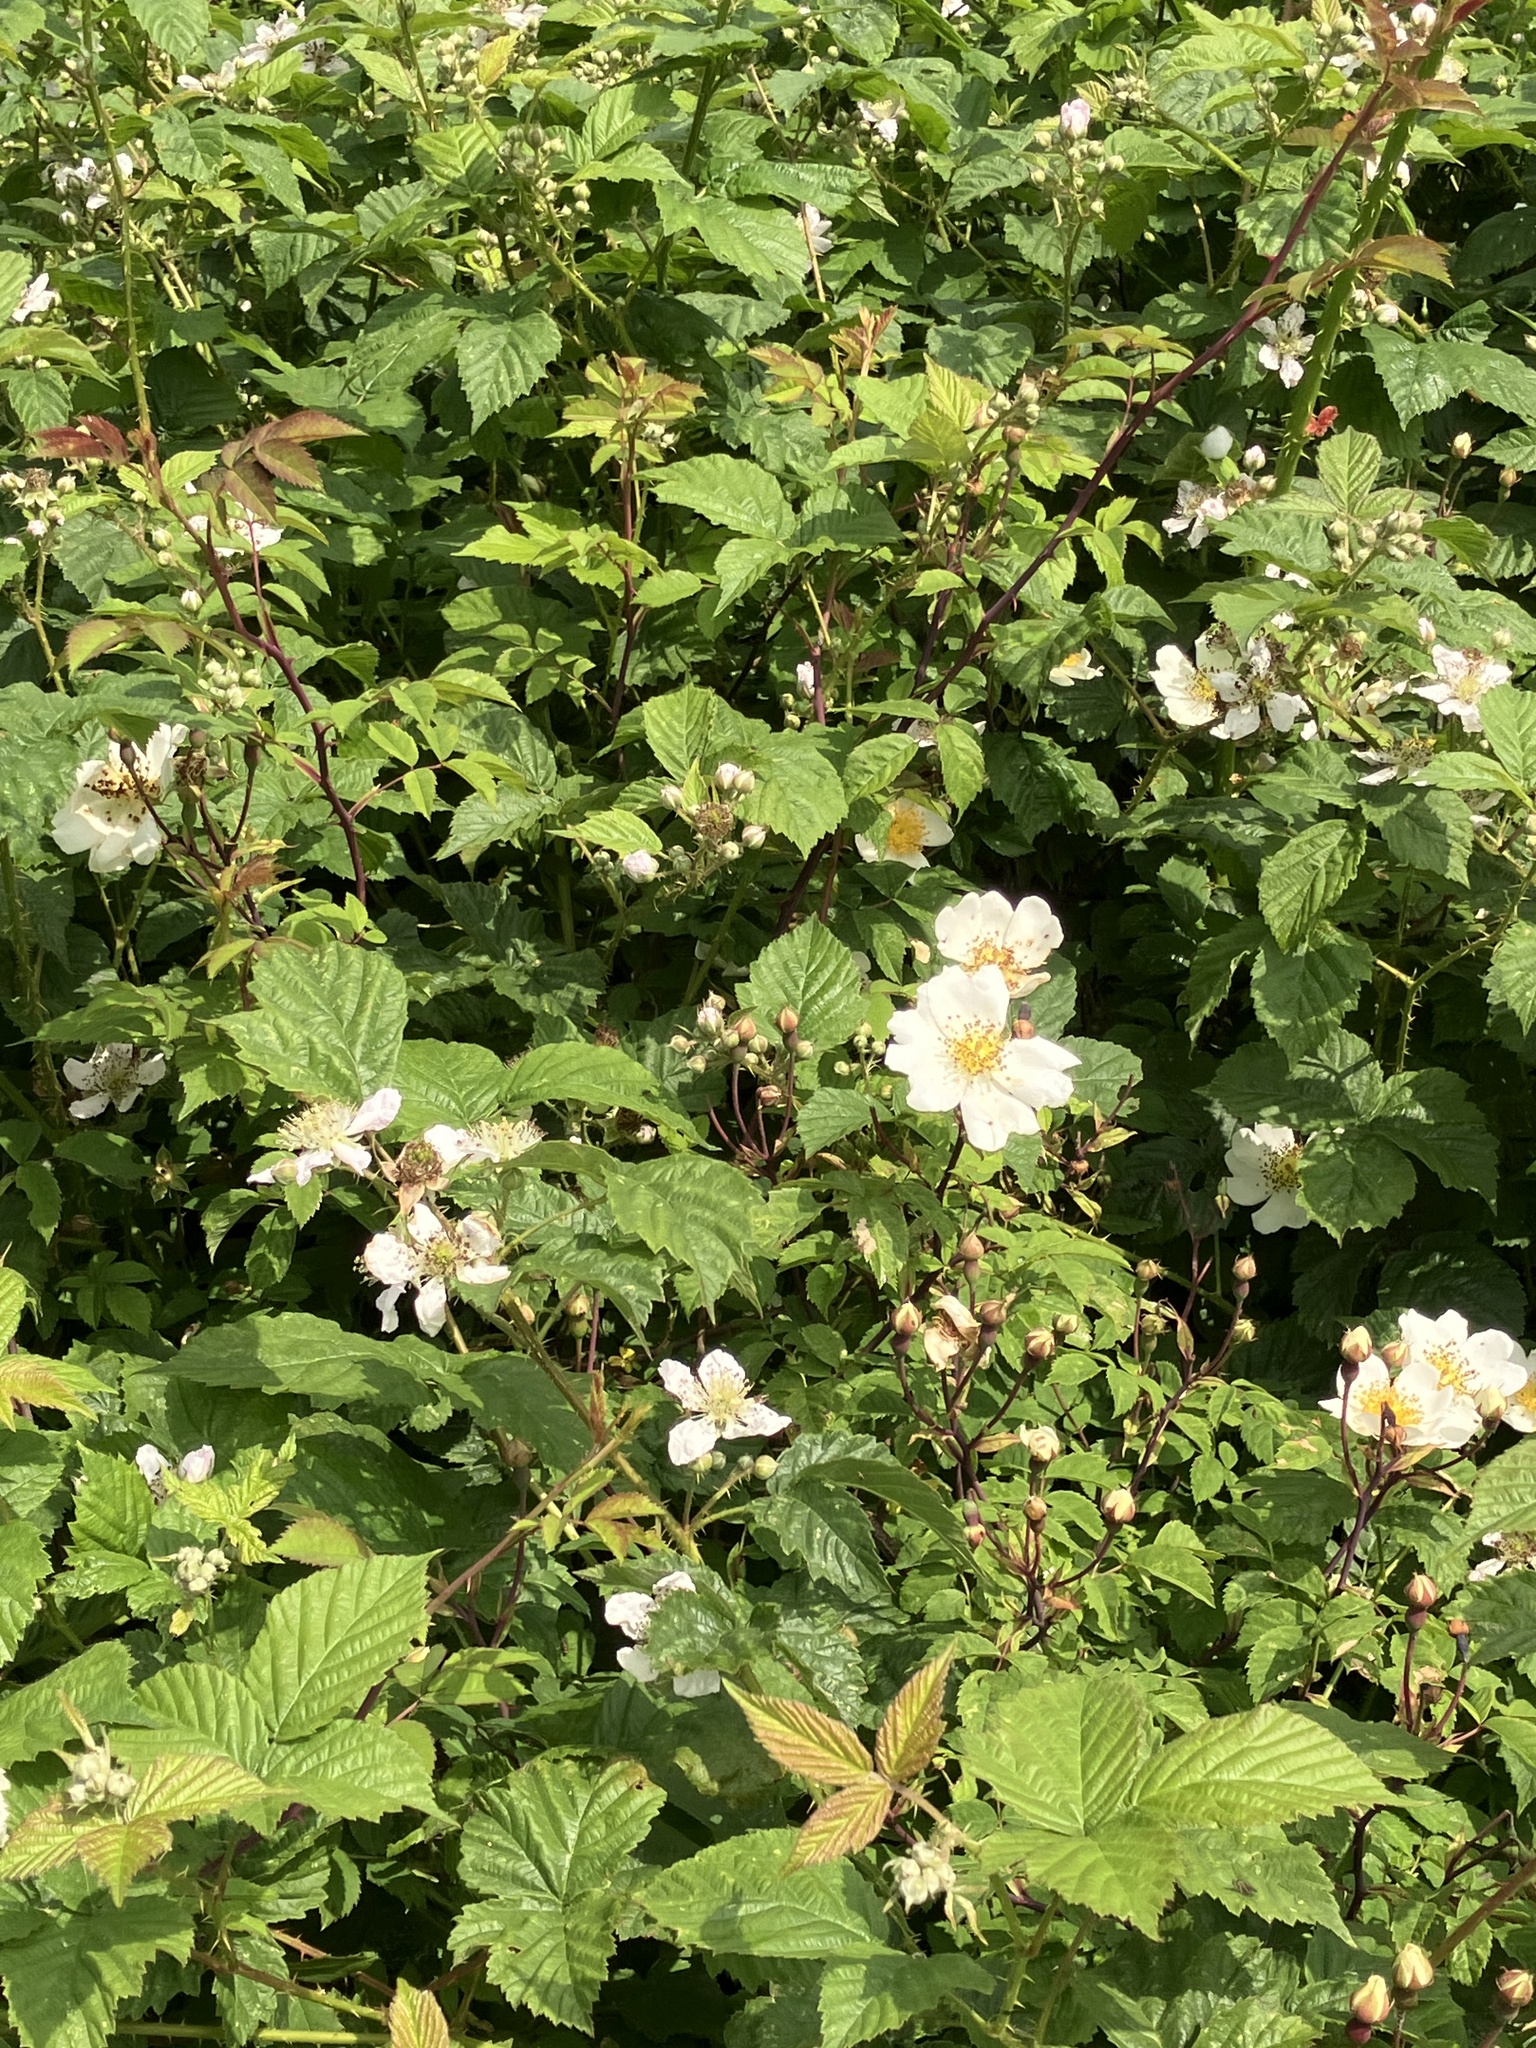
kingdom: Plantae
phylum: Tracheophyta
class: Magnoliopsida
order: Rosales
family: Rosaceae
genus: Rosa
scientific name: Rosa arvensis
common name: Field rose
